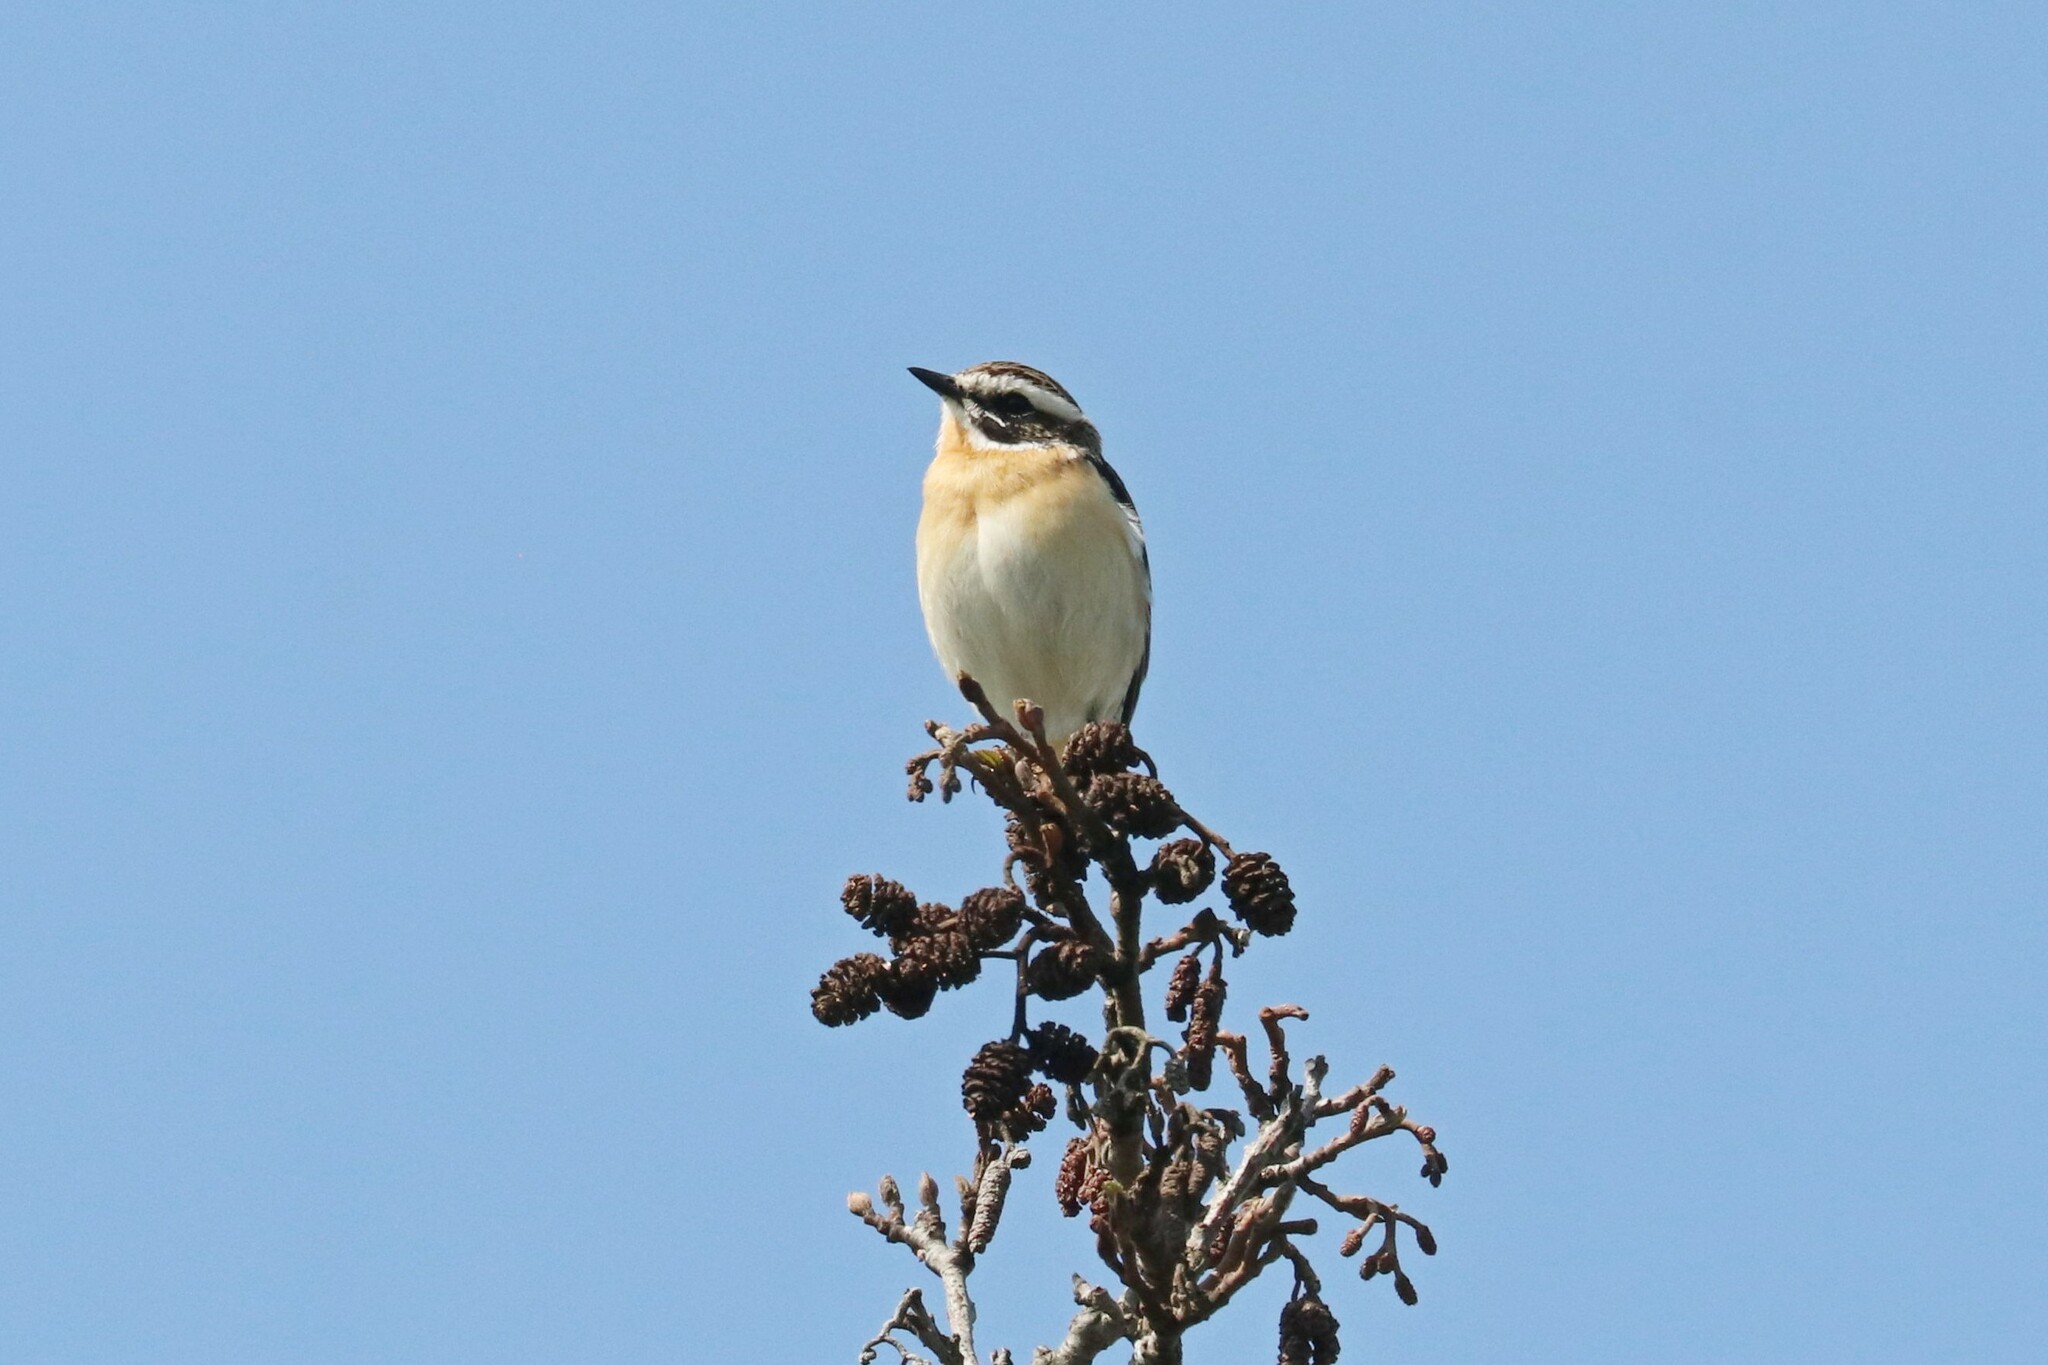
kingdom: Animalia
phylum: Chordata
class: Aves
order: Passeriformes
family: Muscicapidae
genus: Saxicola
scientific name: Saxicola rubetra
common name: Whinchat
